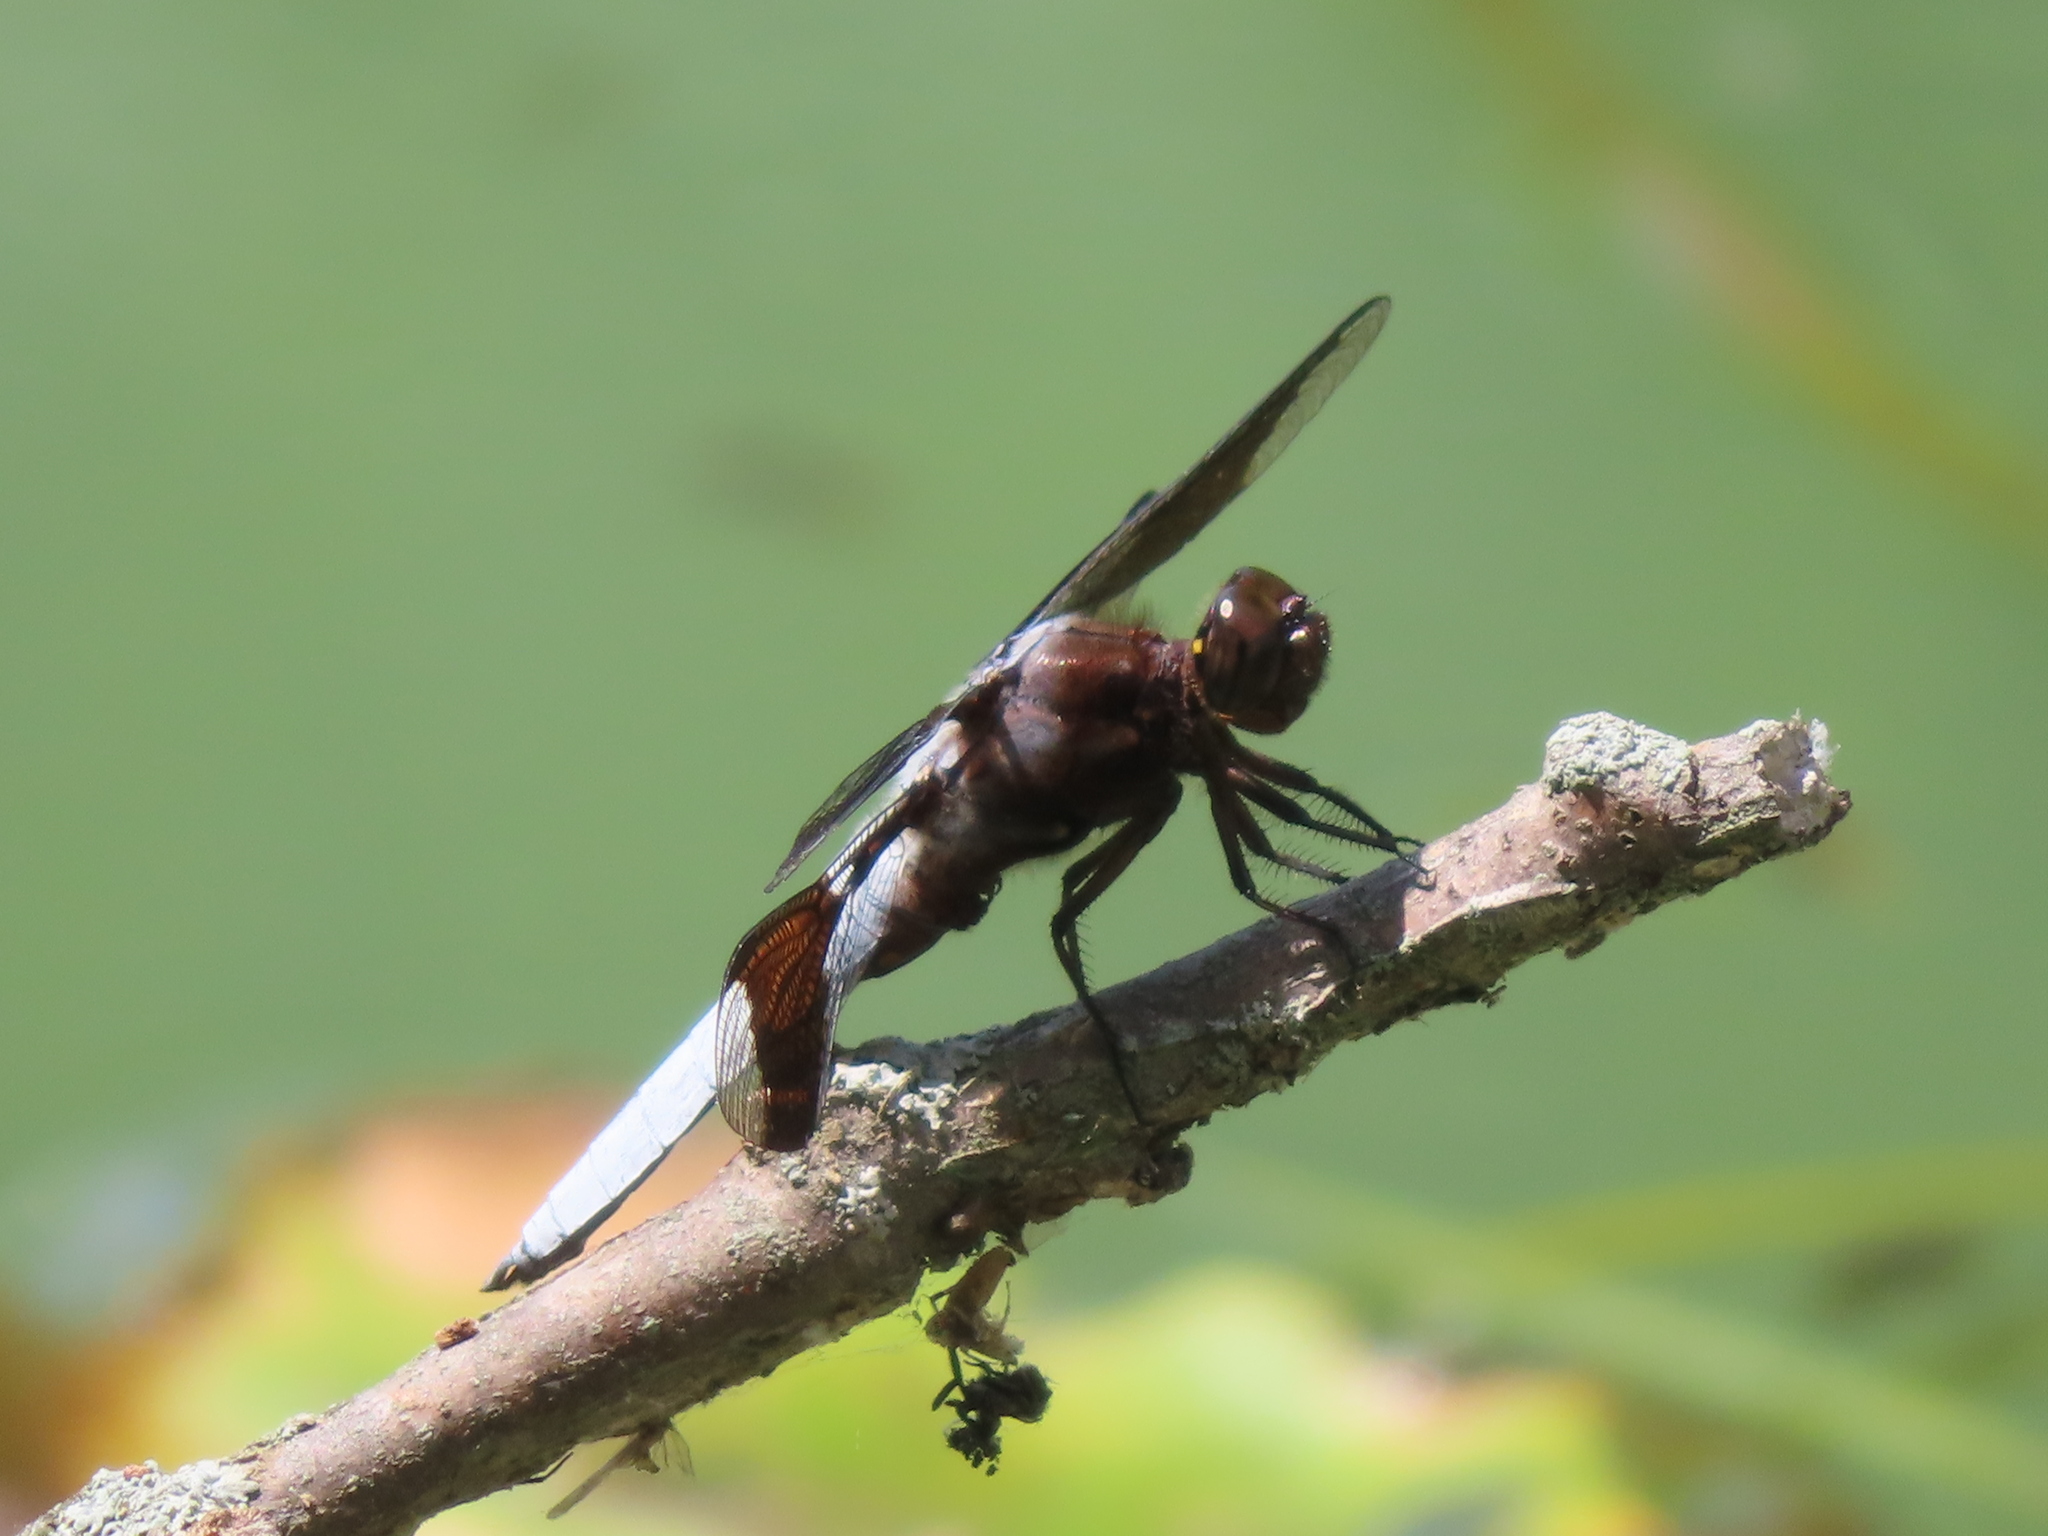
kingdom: Animalia
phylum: Arthropoda
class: Insecta
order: Odonata
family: Libellulidae
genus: Plathemis
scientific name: Plathemis lydia
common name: Common whitetail
